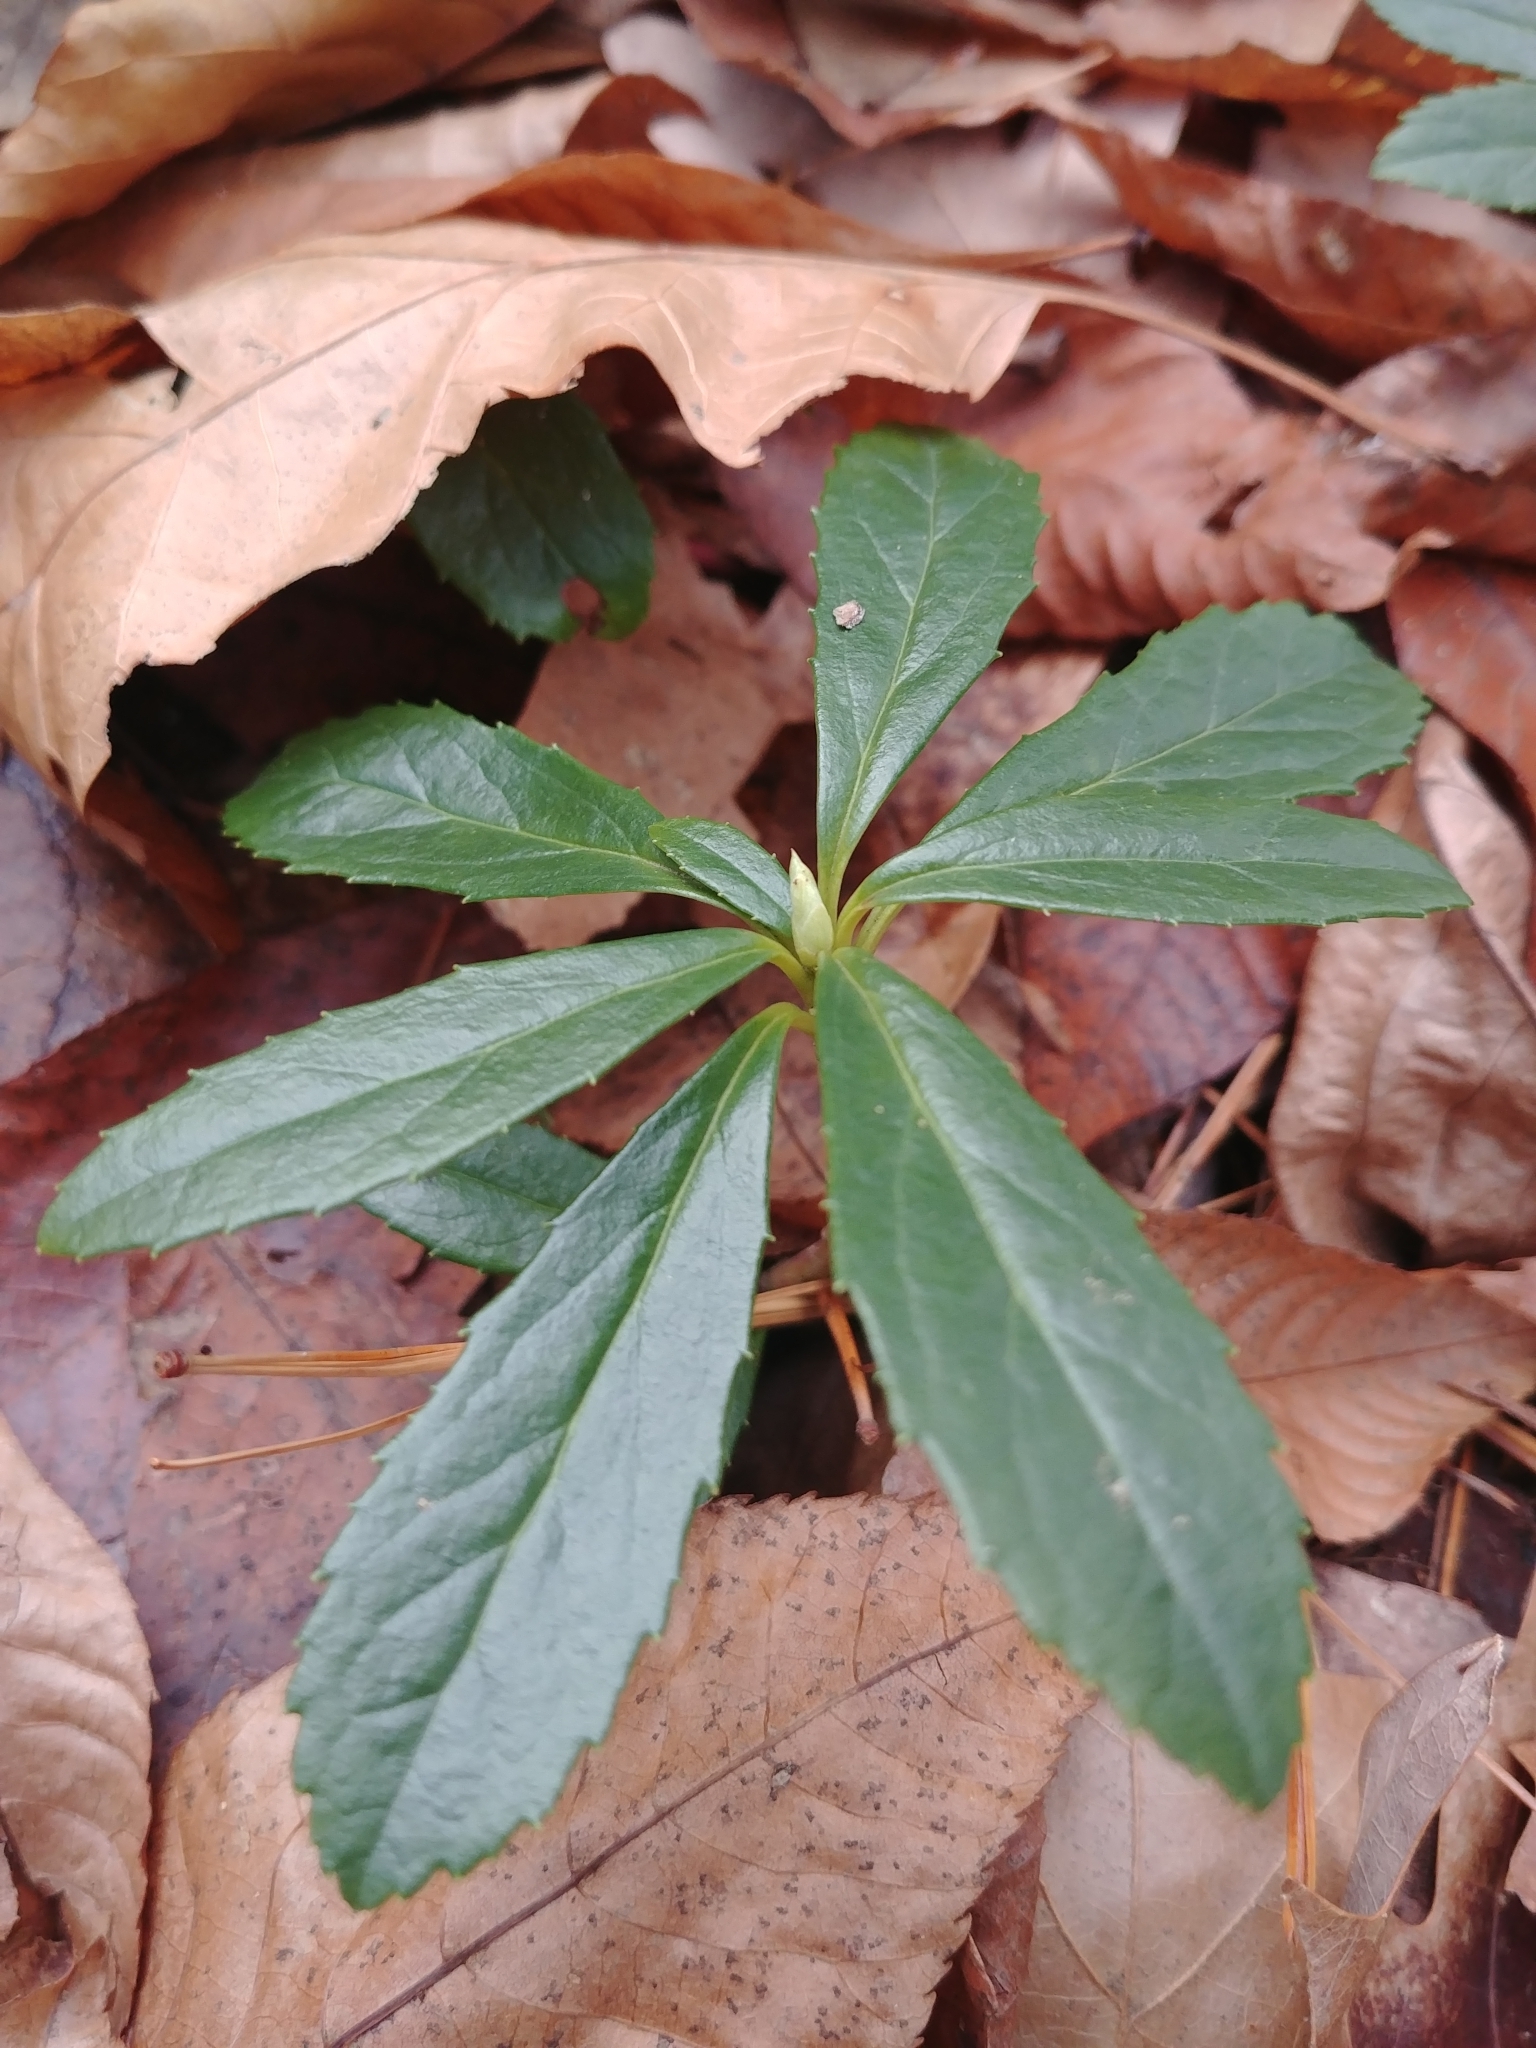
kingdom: Plantae
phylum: Tracheophyta
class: Magnoliopsida
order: Ericales
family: Ericaceae
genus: Chimaphila
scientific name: Chimaphila umbellata
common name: Pipsissewa
